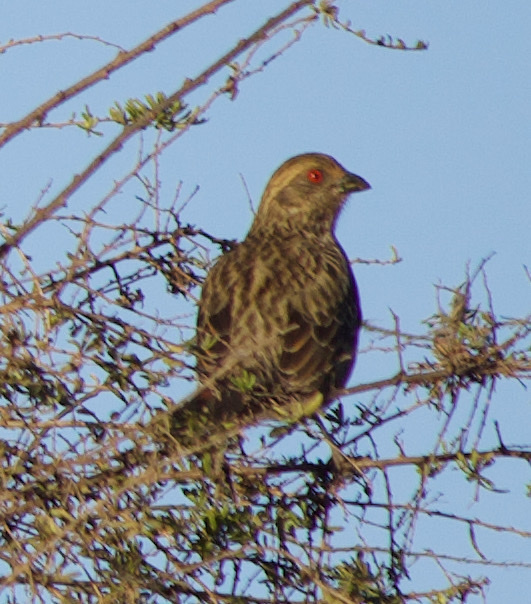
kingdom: Animalia
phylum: Chordata
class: Aves
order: Passeriformes
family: Cotingidae
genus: Phytotoma
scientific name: Phytotoma rara
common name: Rufous-tailed plantcutter
